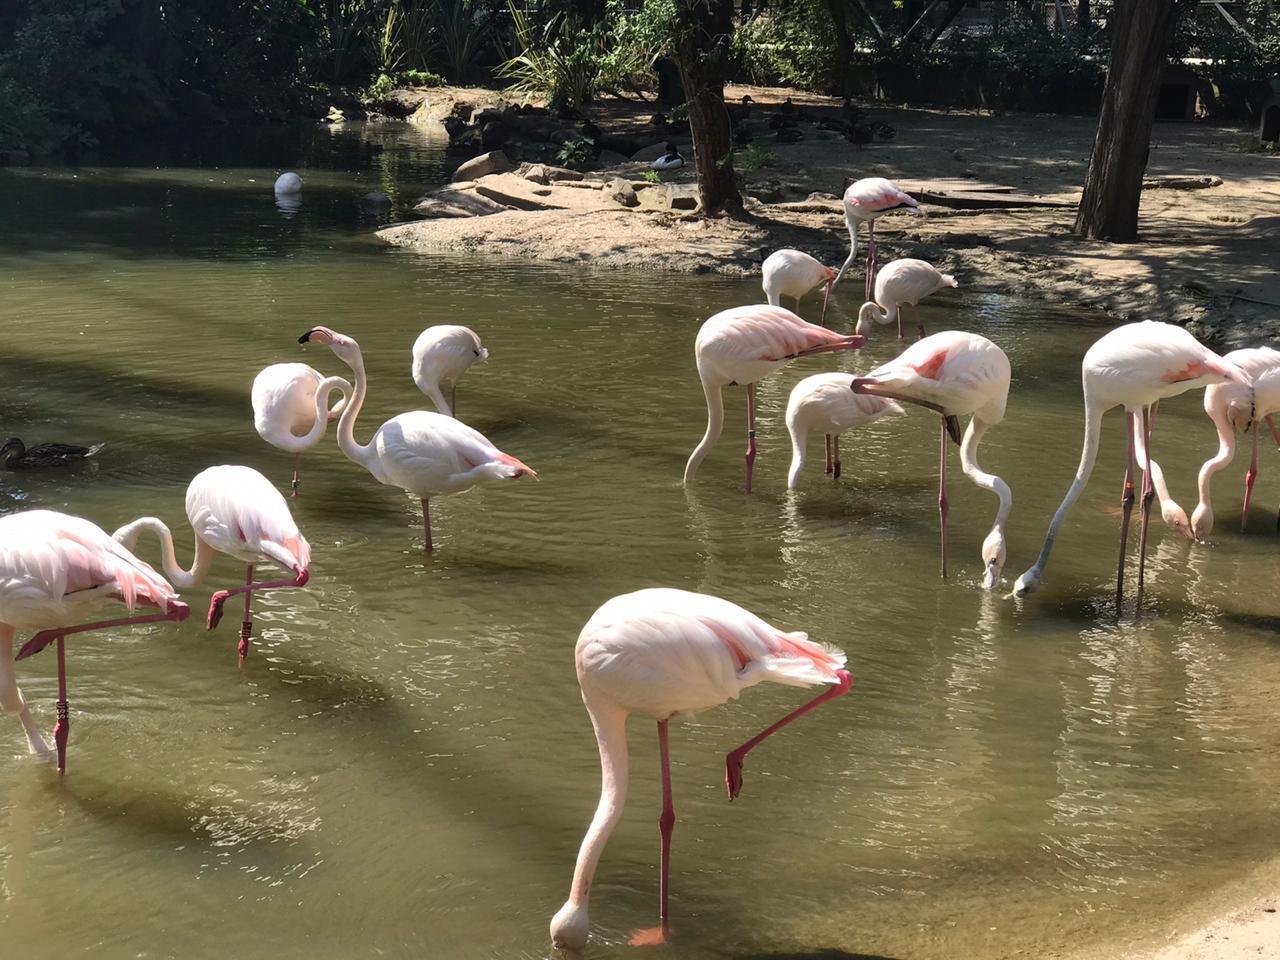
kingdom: Animalia
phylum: Chordata
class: Aves
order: Phoenicopteriformes
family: Phoenicopteridae
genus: Phoenicopterus
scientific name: Phoenicopterus roseus
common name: Greater flamingo
